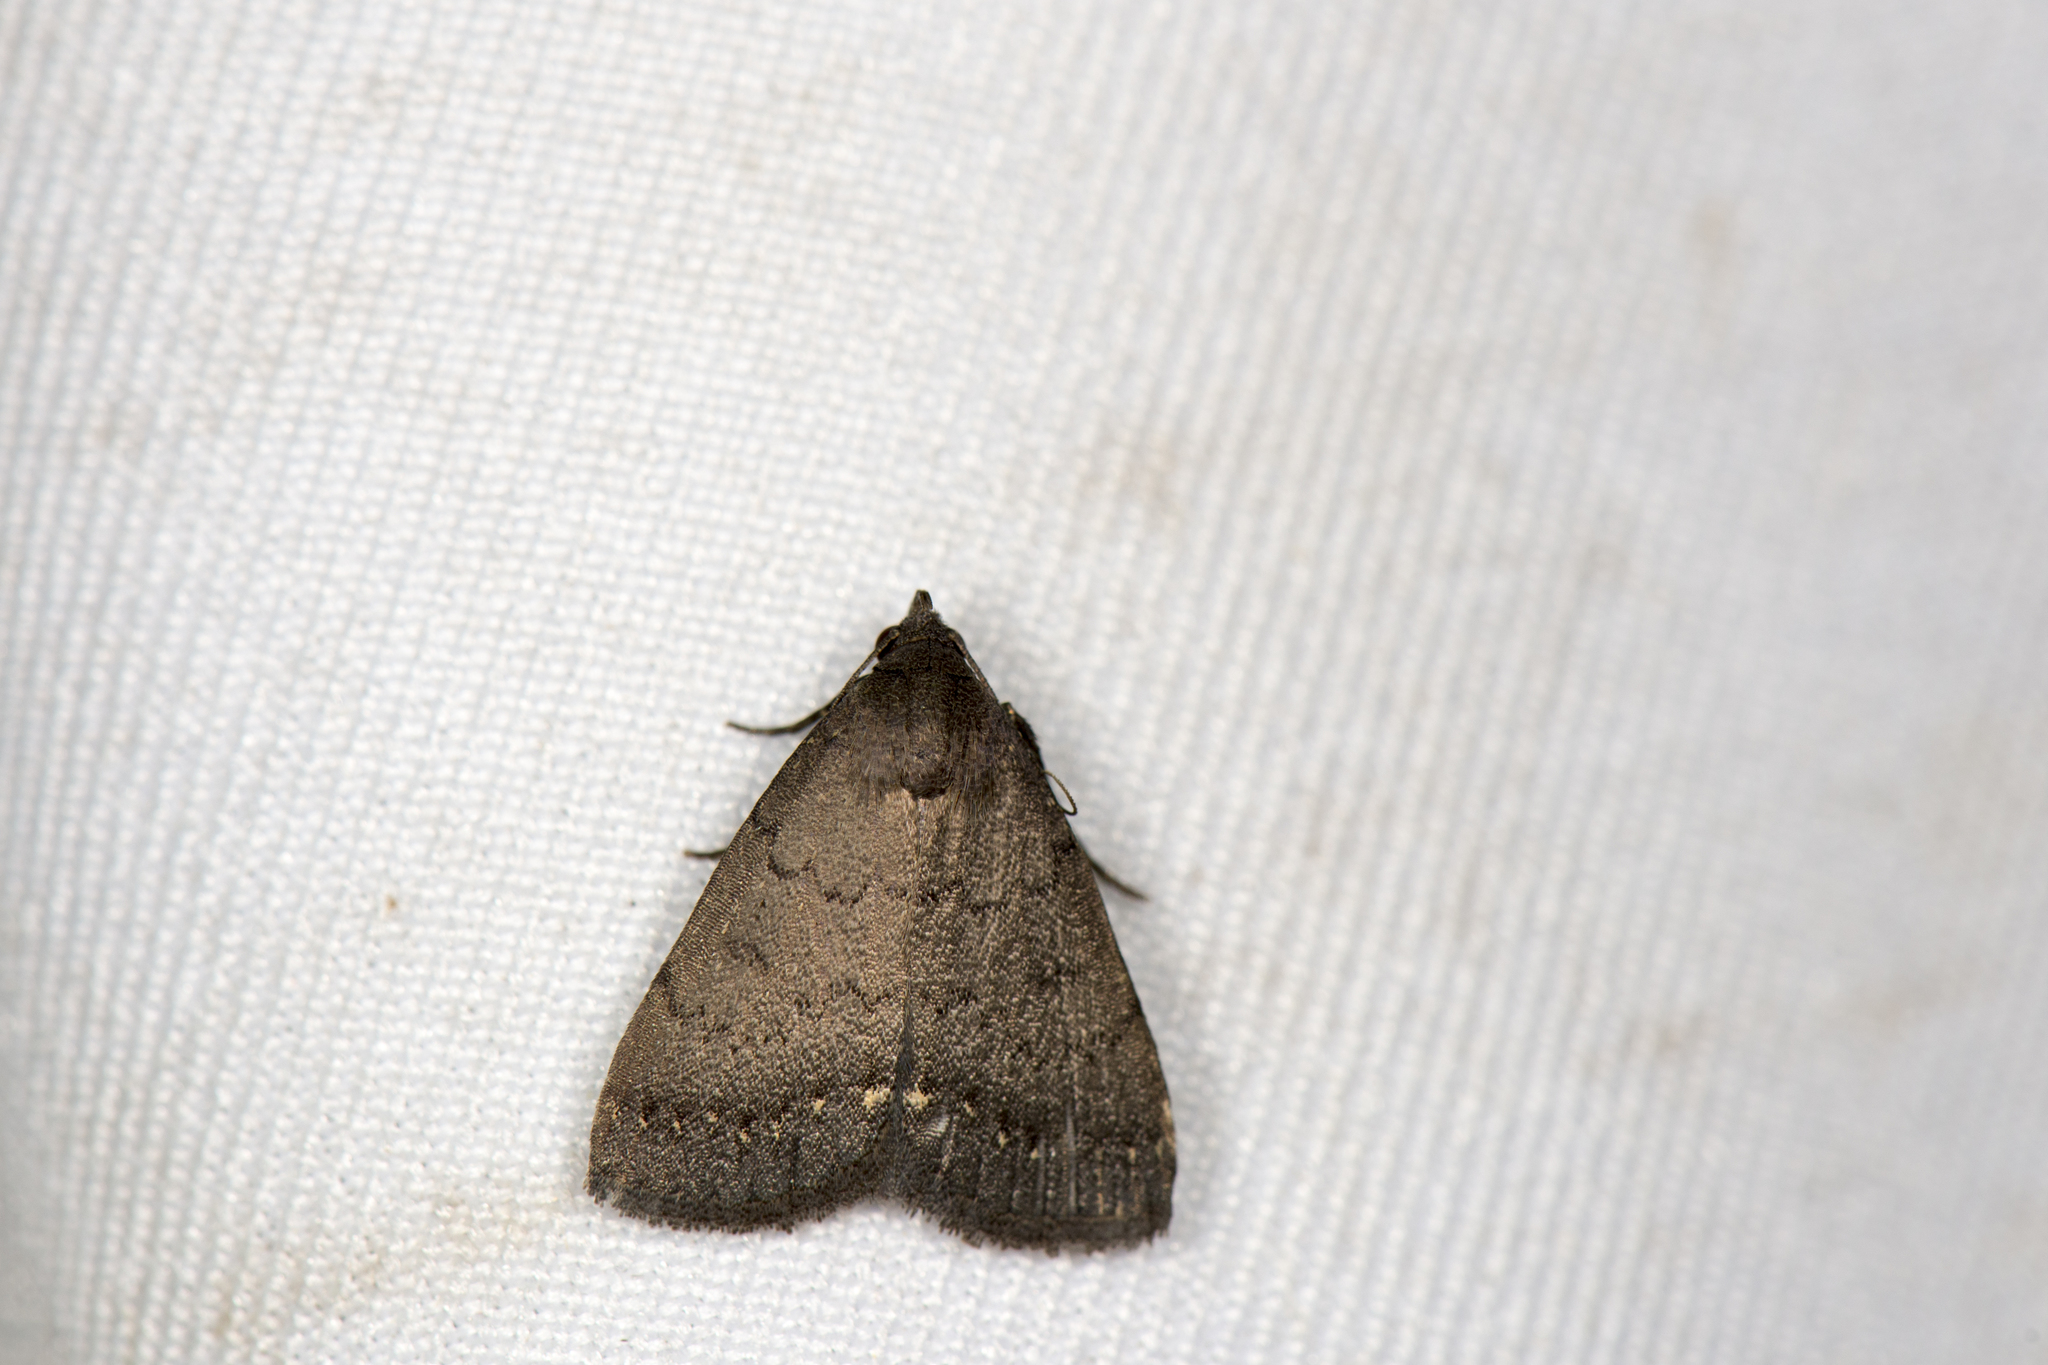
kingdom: Animalia
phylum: Arthropoda
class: Insecta
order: Lepidoptera
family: Erebidae
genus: Nodaria
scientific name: Nodaria externalis
